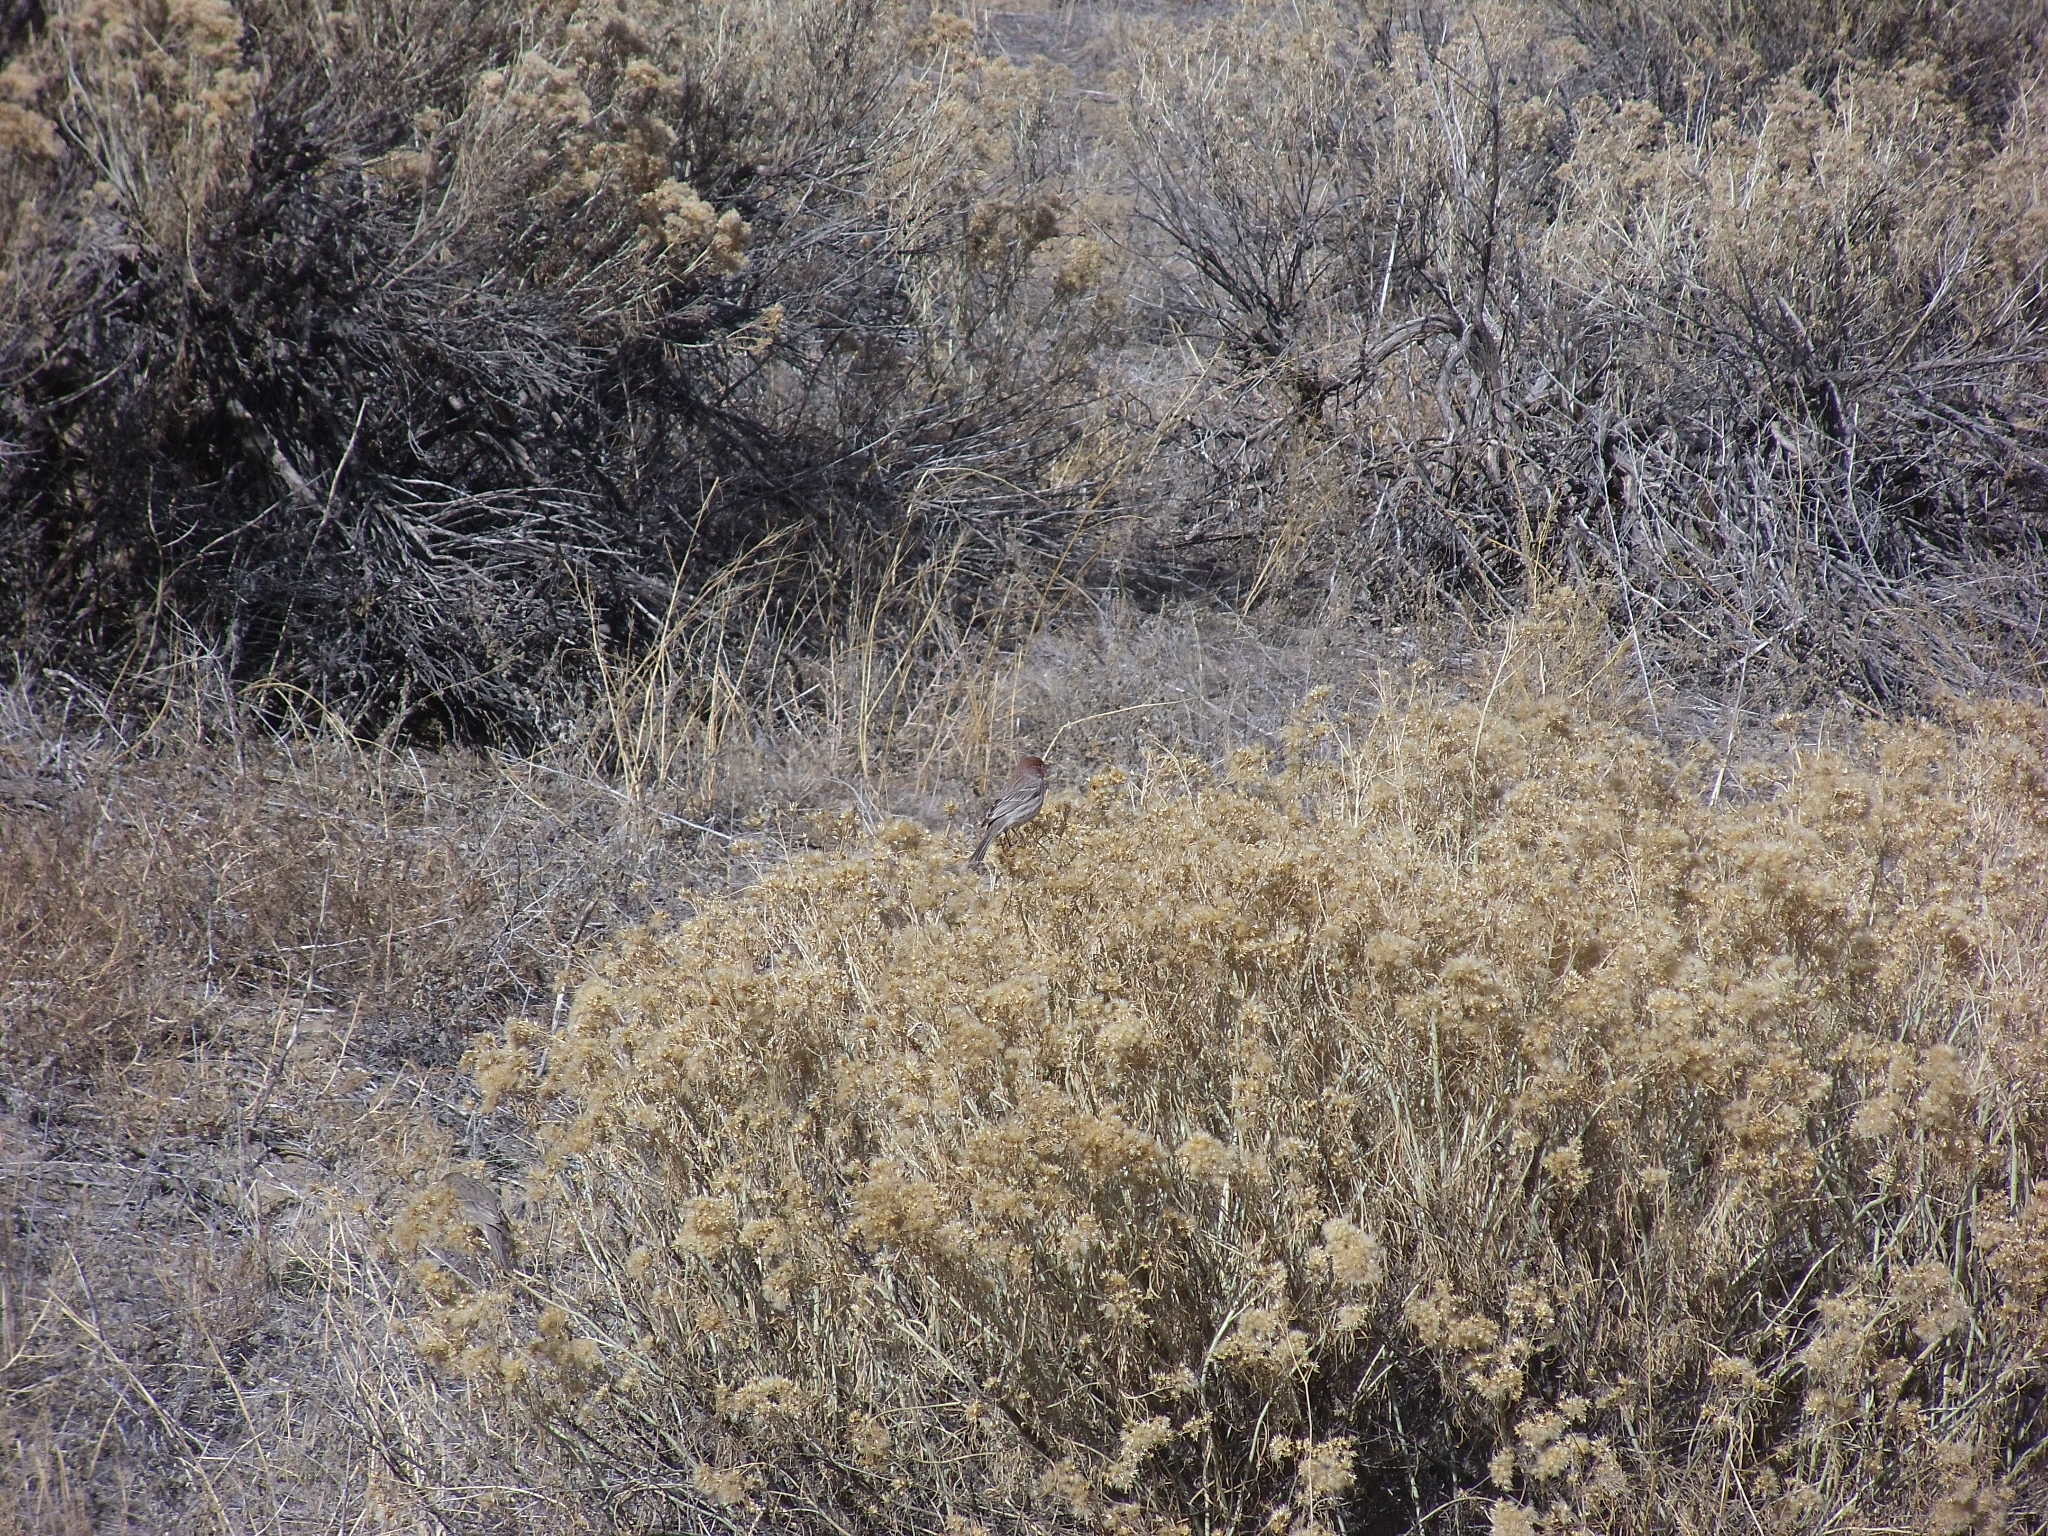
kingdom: Animalia
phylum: Chordata
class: Aves
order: Passeriformes
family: Fringillidae
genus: Haemorhous
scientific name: Haemorhous mexicanus
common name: House finch
